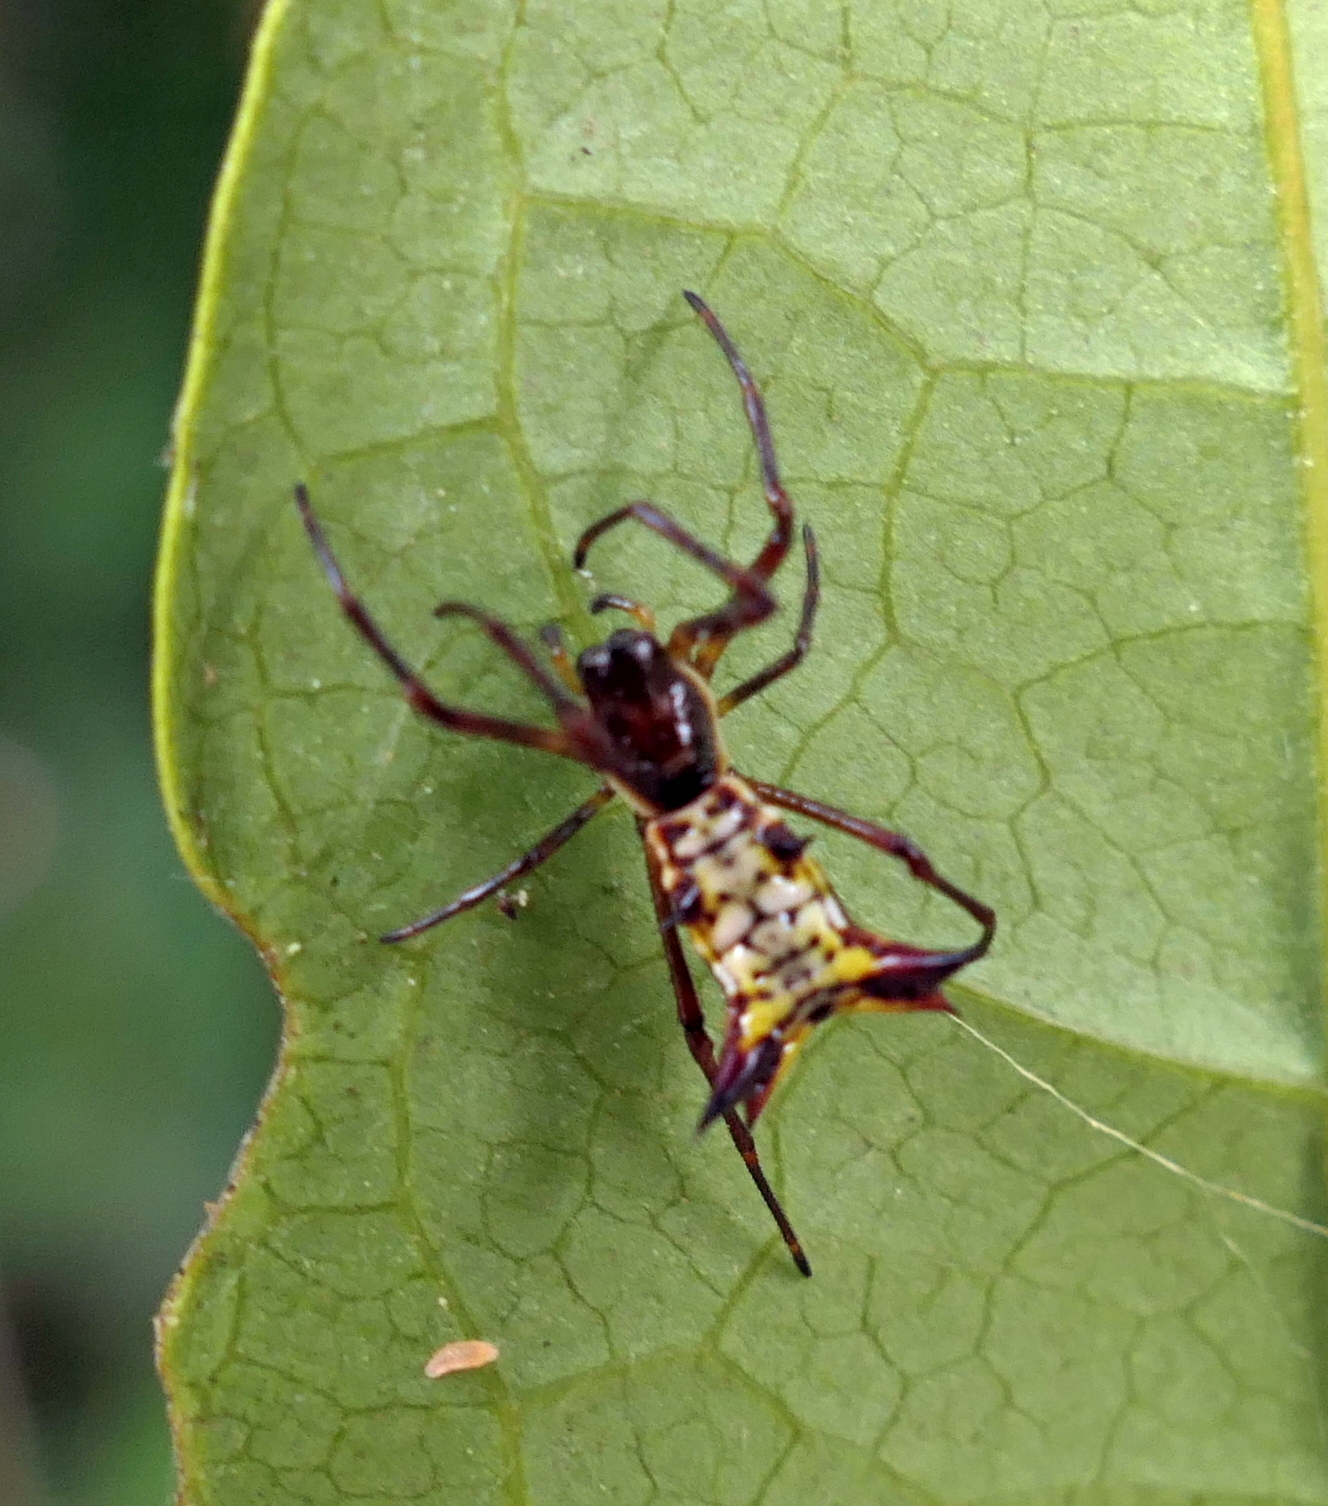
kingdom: Animalia
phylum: Arthropoda
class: Arachnida
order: Araneae
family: Araneidae
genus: Micrathena
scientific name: Micrathena fissispina
